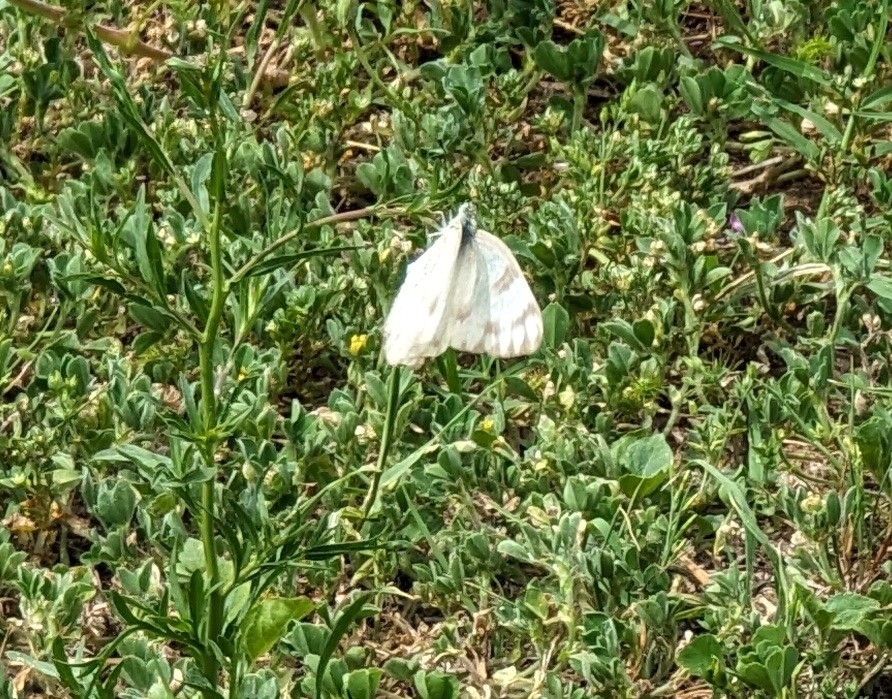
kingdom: Animalia
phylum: Arthropoda
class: Insecta
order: Lepidoptera
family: Pieridae
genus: Pontia
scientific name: Pontia protodice
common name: Checkered white
